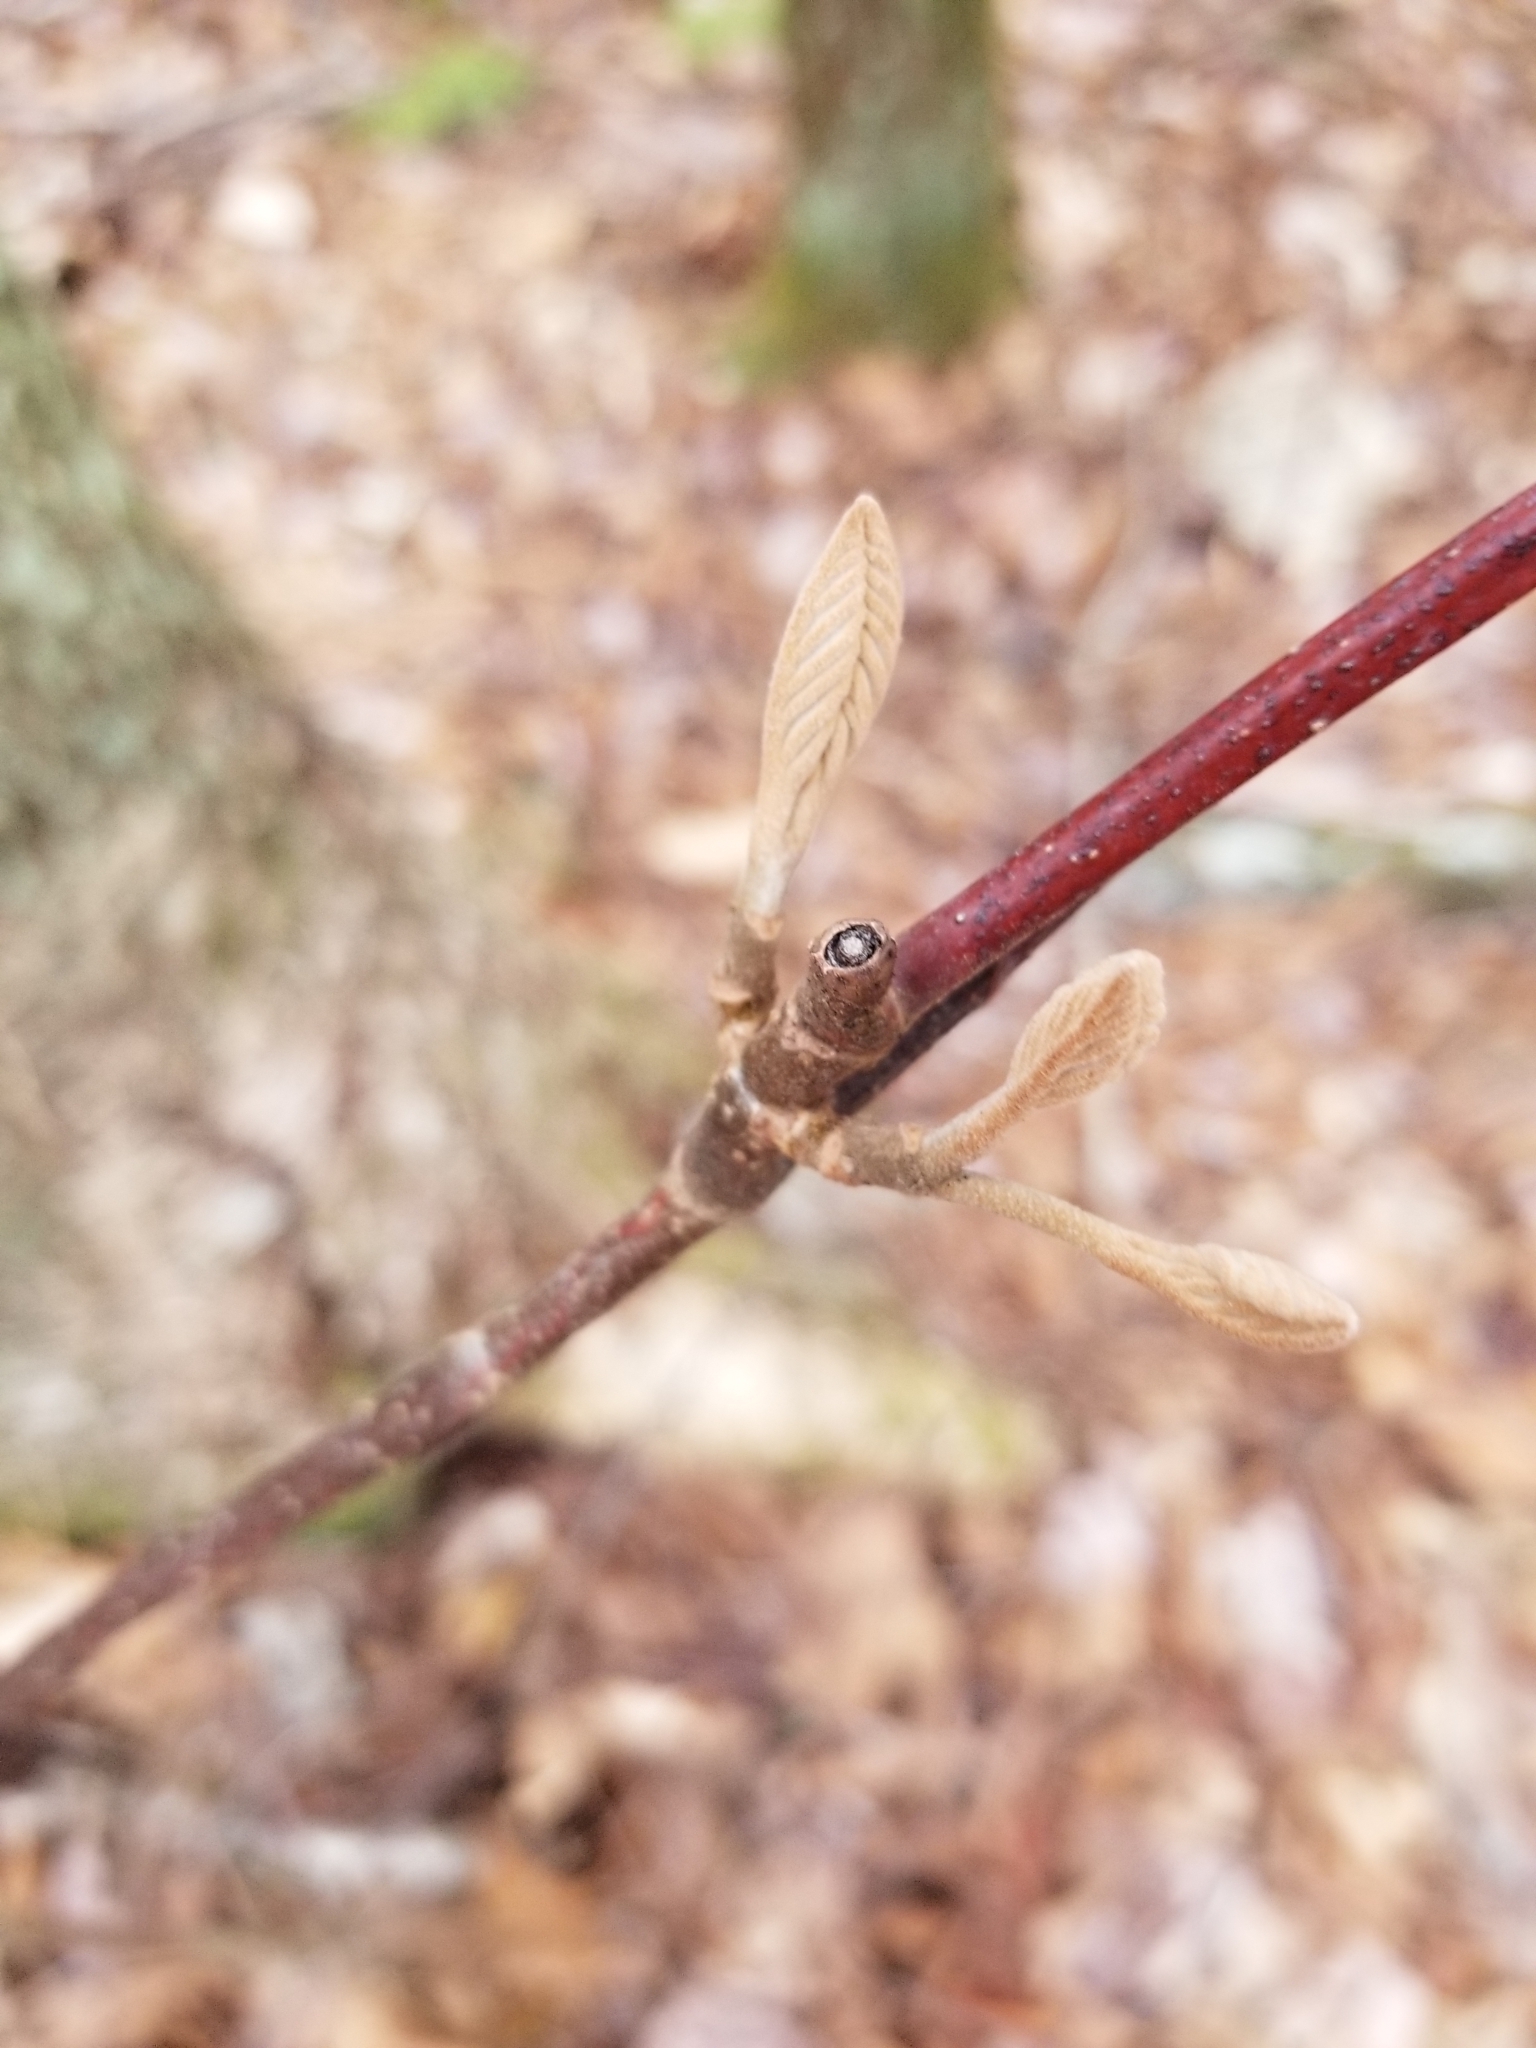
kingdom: Plantae
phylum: Tracheophyta
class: Magnoliopsida
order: Dipsacales
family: Viburnaceae
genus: Viburnum
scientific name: Viburnum lantanoides
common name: Hobblebush
